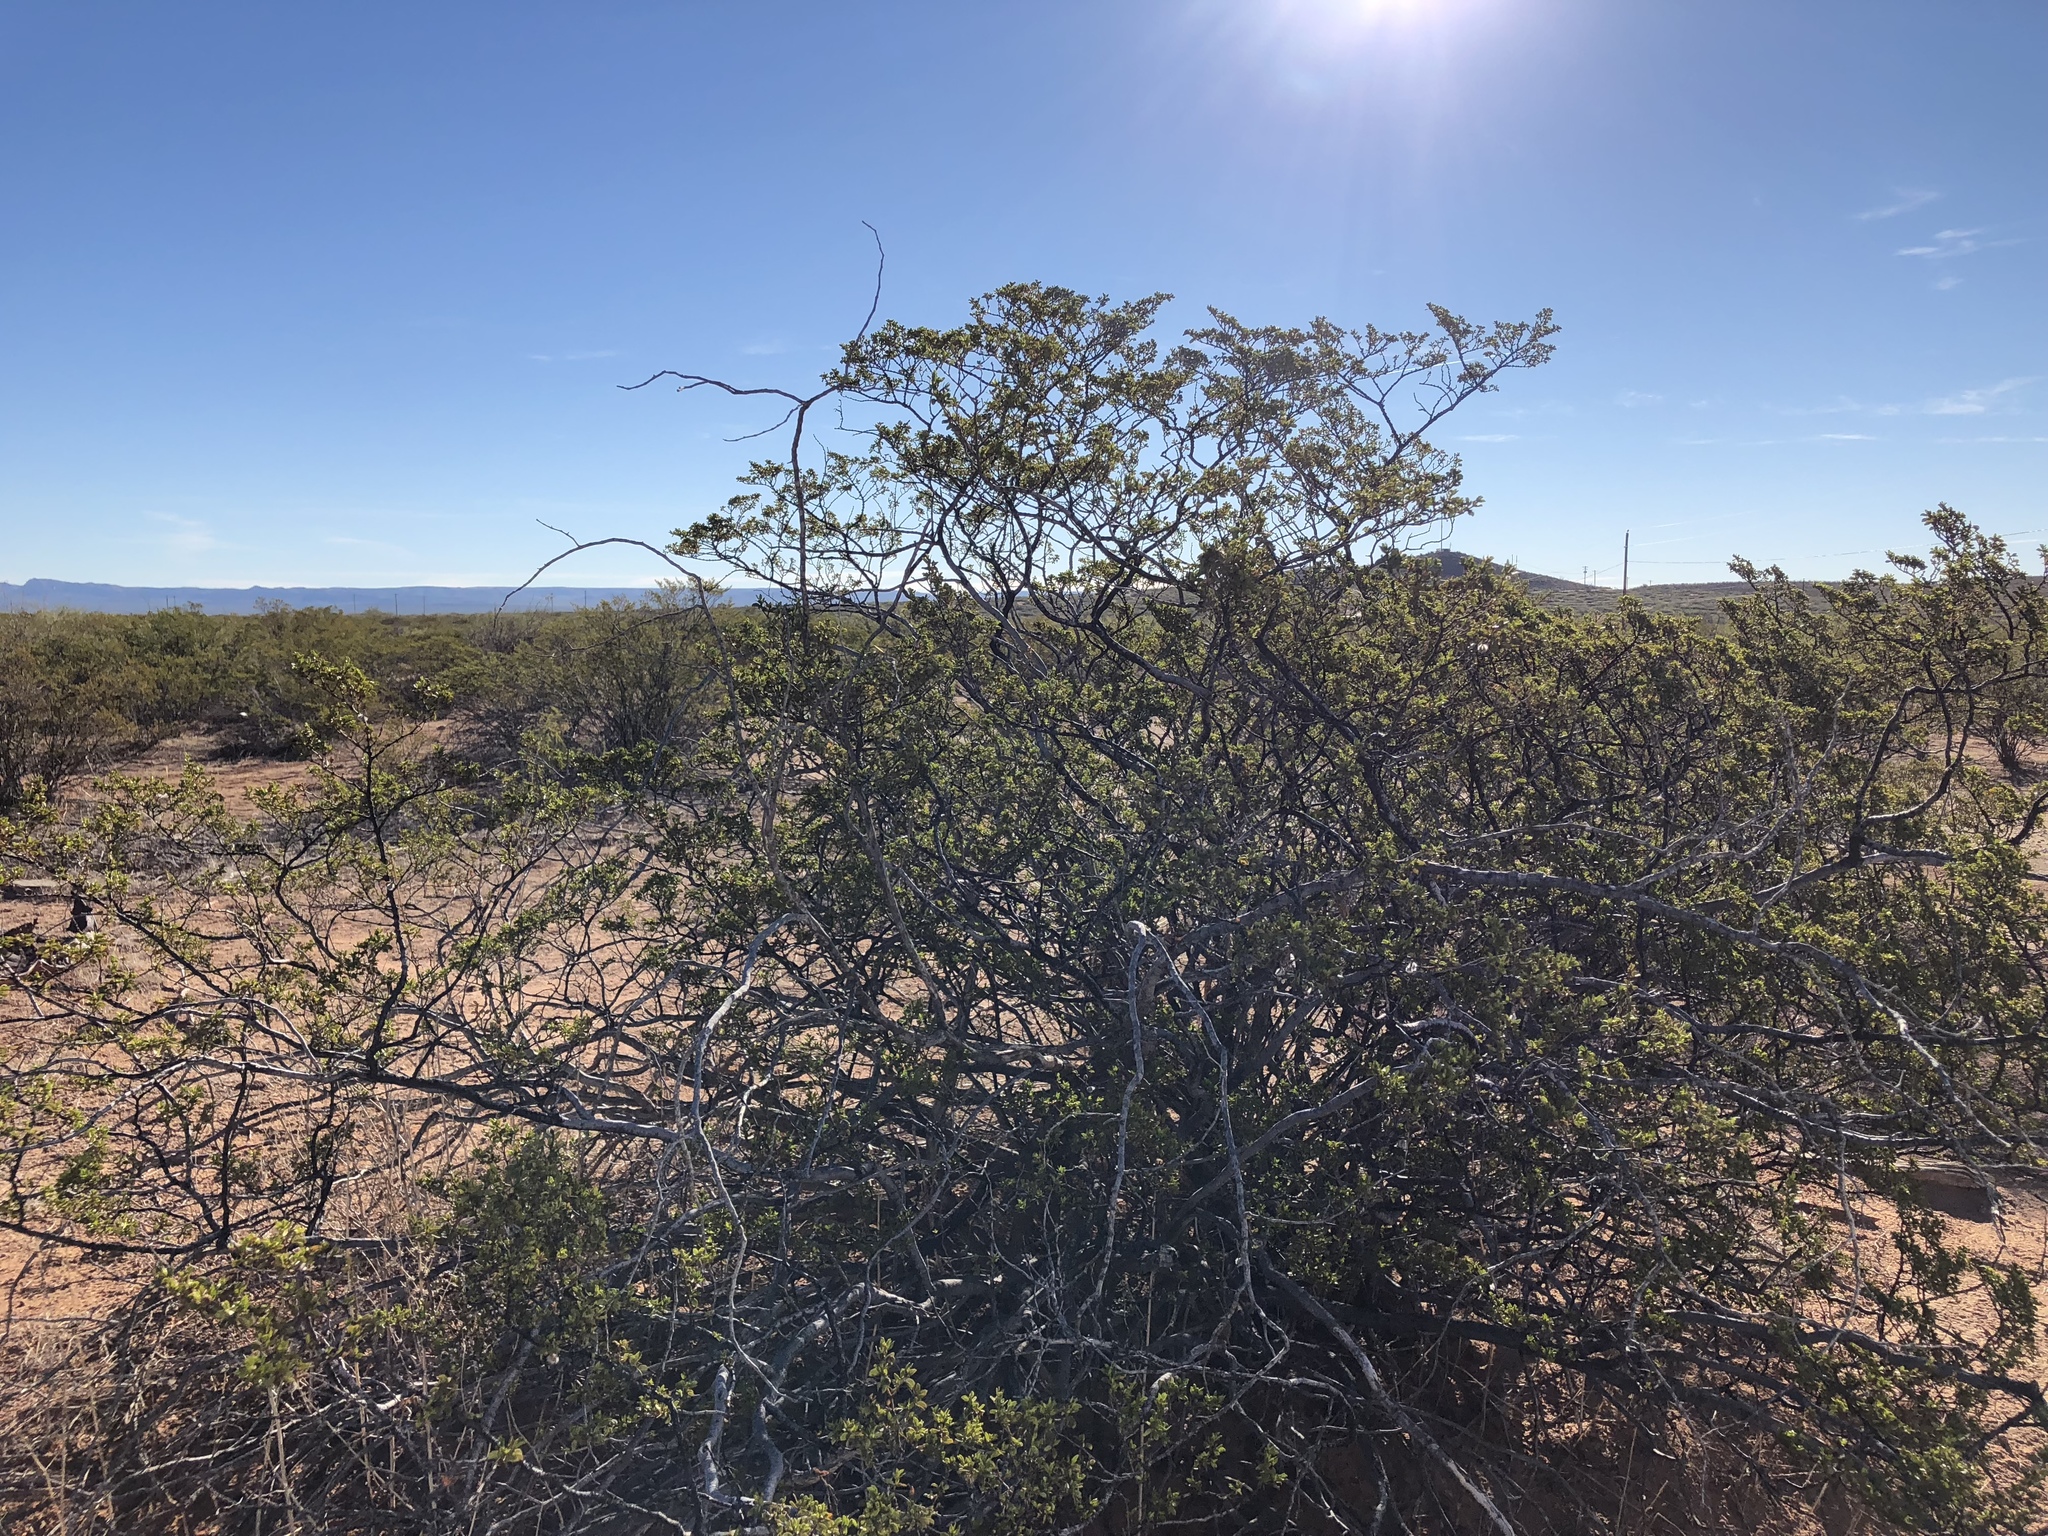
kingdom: Plantae
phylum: Tracheophyta
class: Magnoliopsida
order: Zygophyllales
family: Zygophyllaceae
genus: Larrea
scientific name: Larrea tridentata
